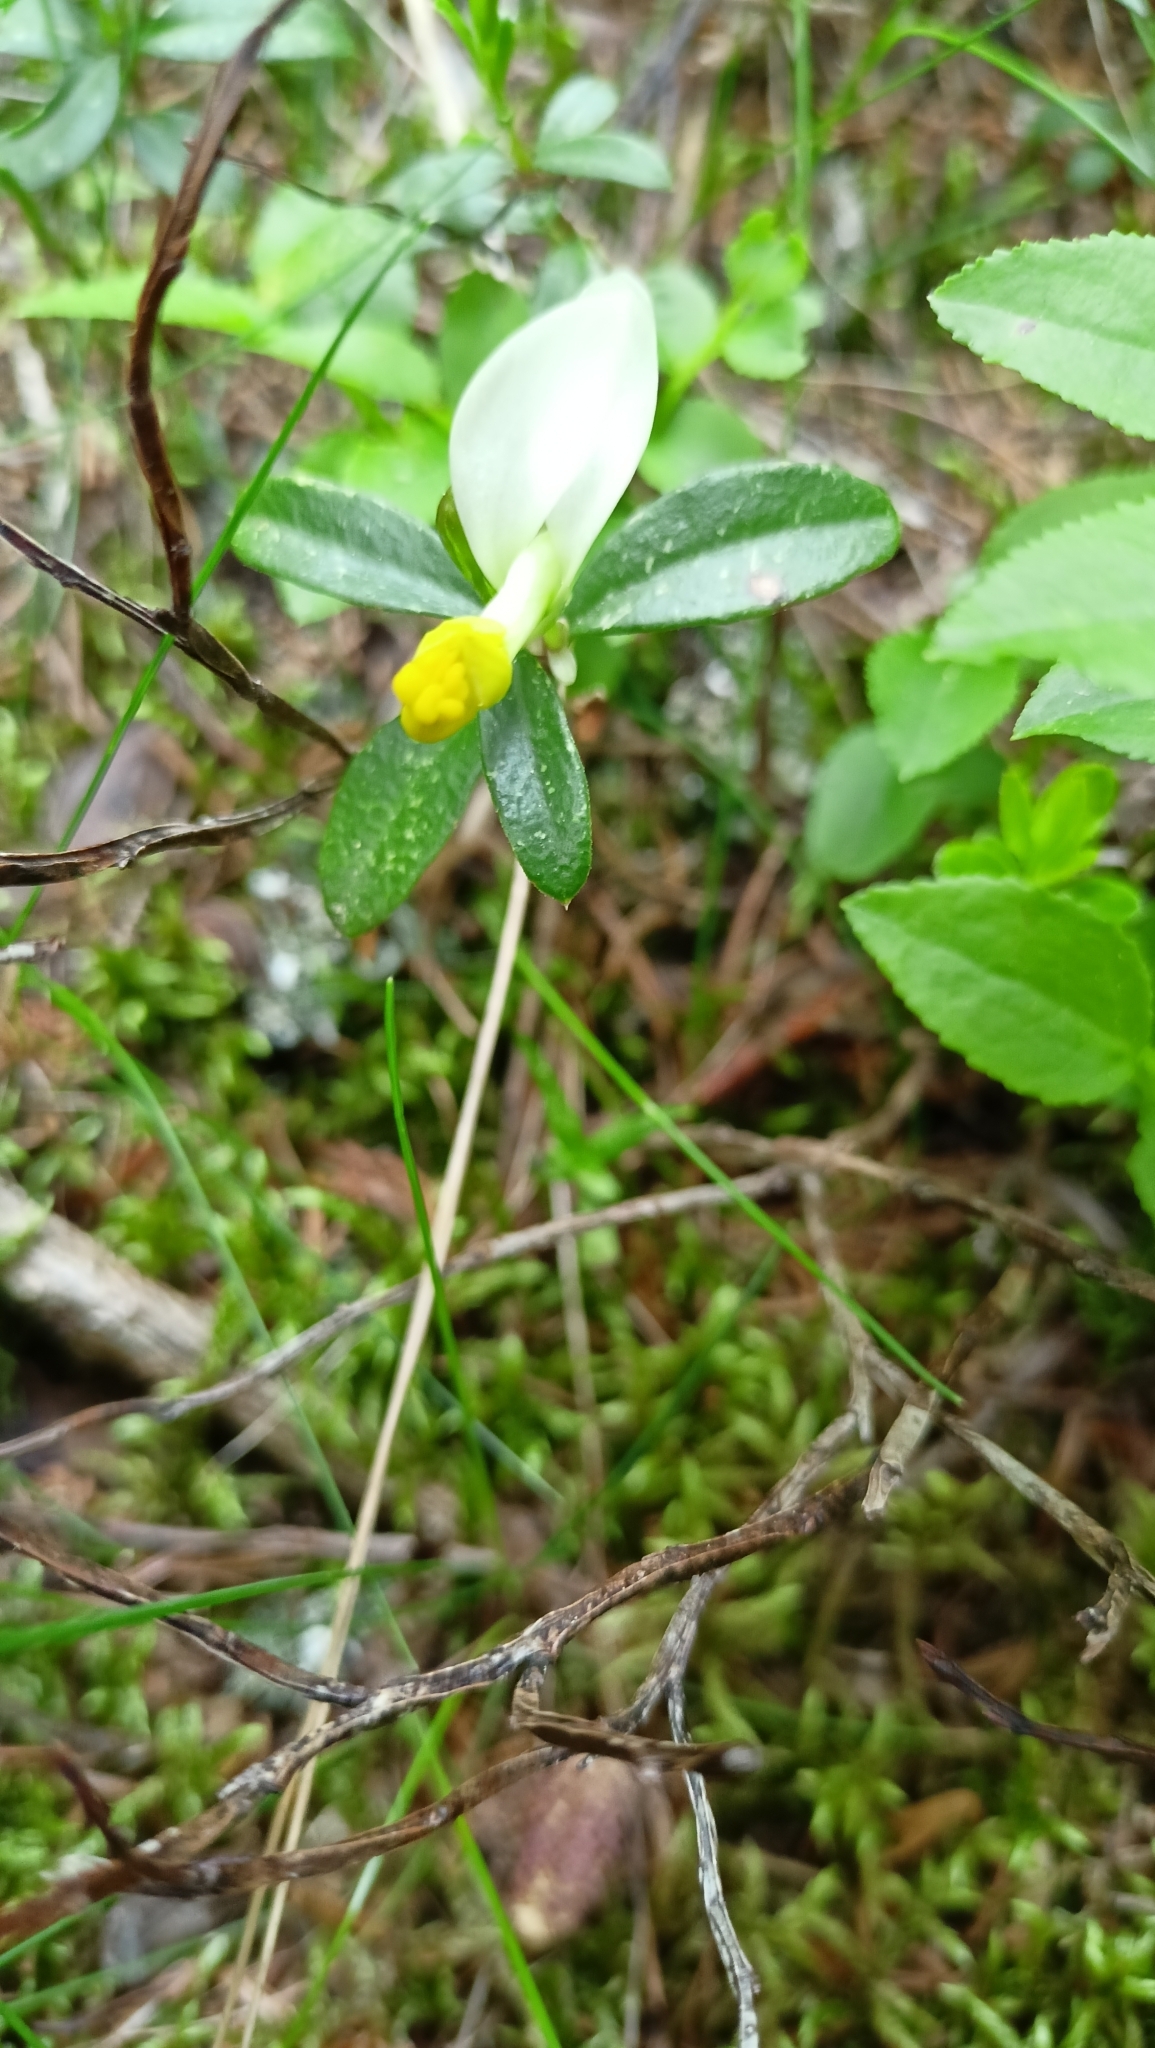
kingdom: Plantae
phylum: Tracheophyta
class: Magnoliopsida
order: Fabales
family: Polygalaceae
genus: Polygaloides
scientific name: Polygaloides chamaebuxus
